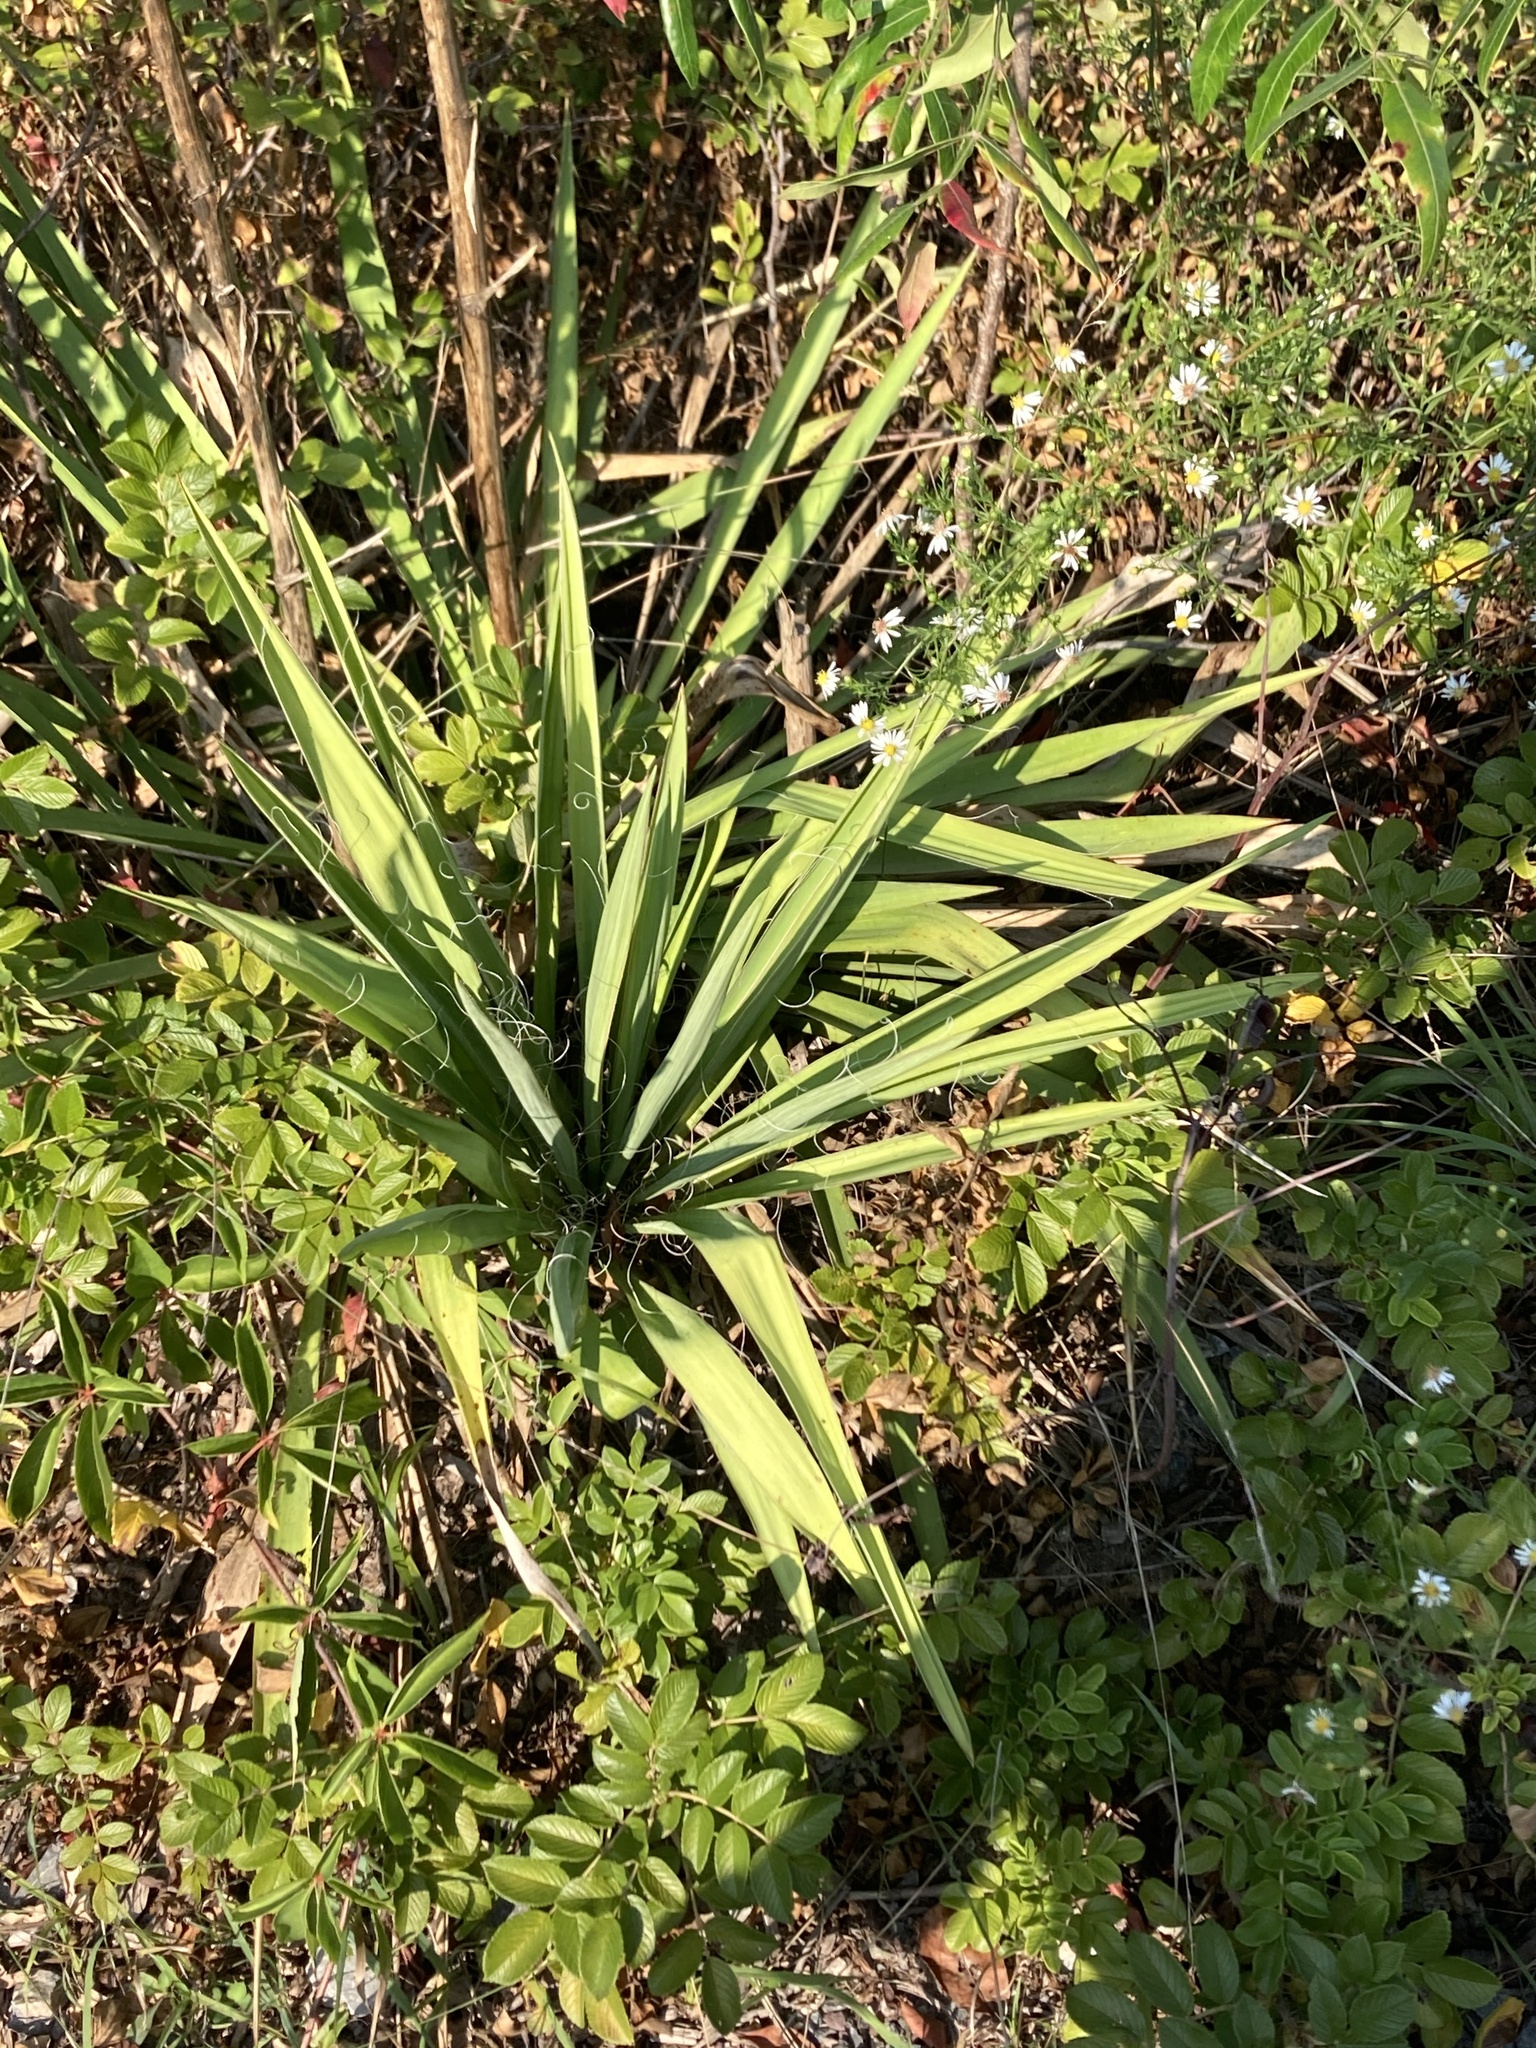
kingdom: Plantae
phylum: Tracheophyta
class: Liliopsida
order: Asparagales
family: Asparagaceae
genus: Yucca
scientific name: Yucca filamentosa
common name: Adam's-needle
